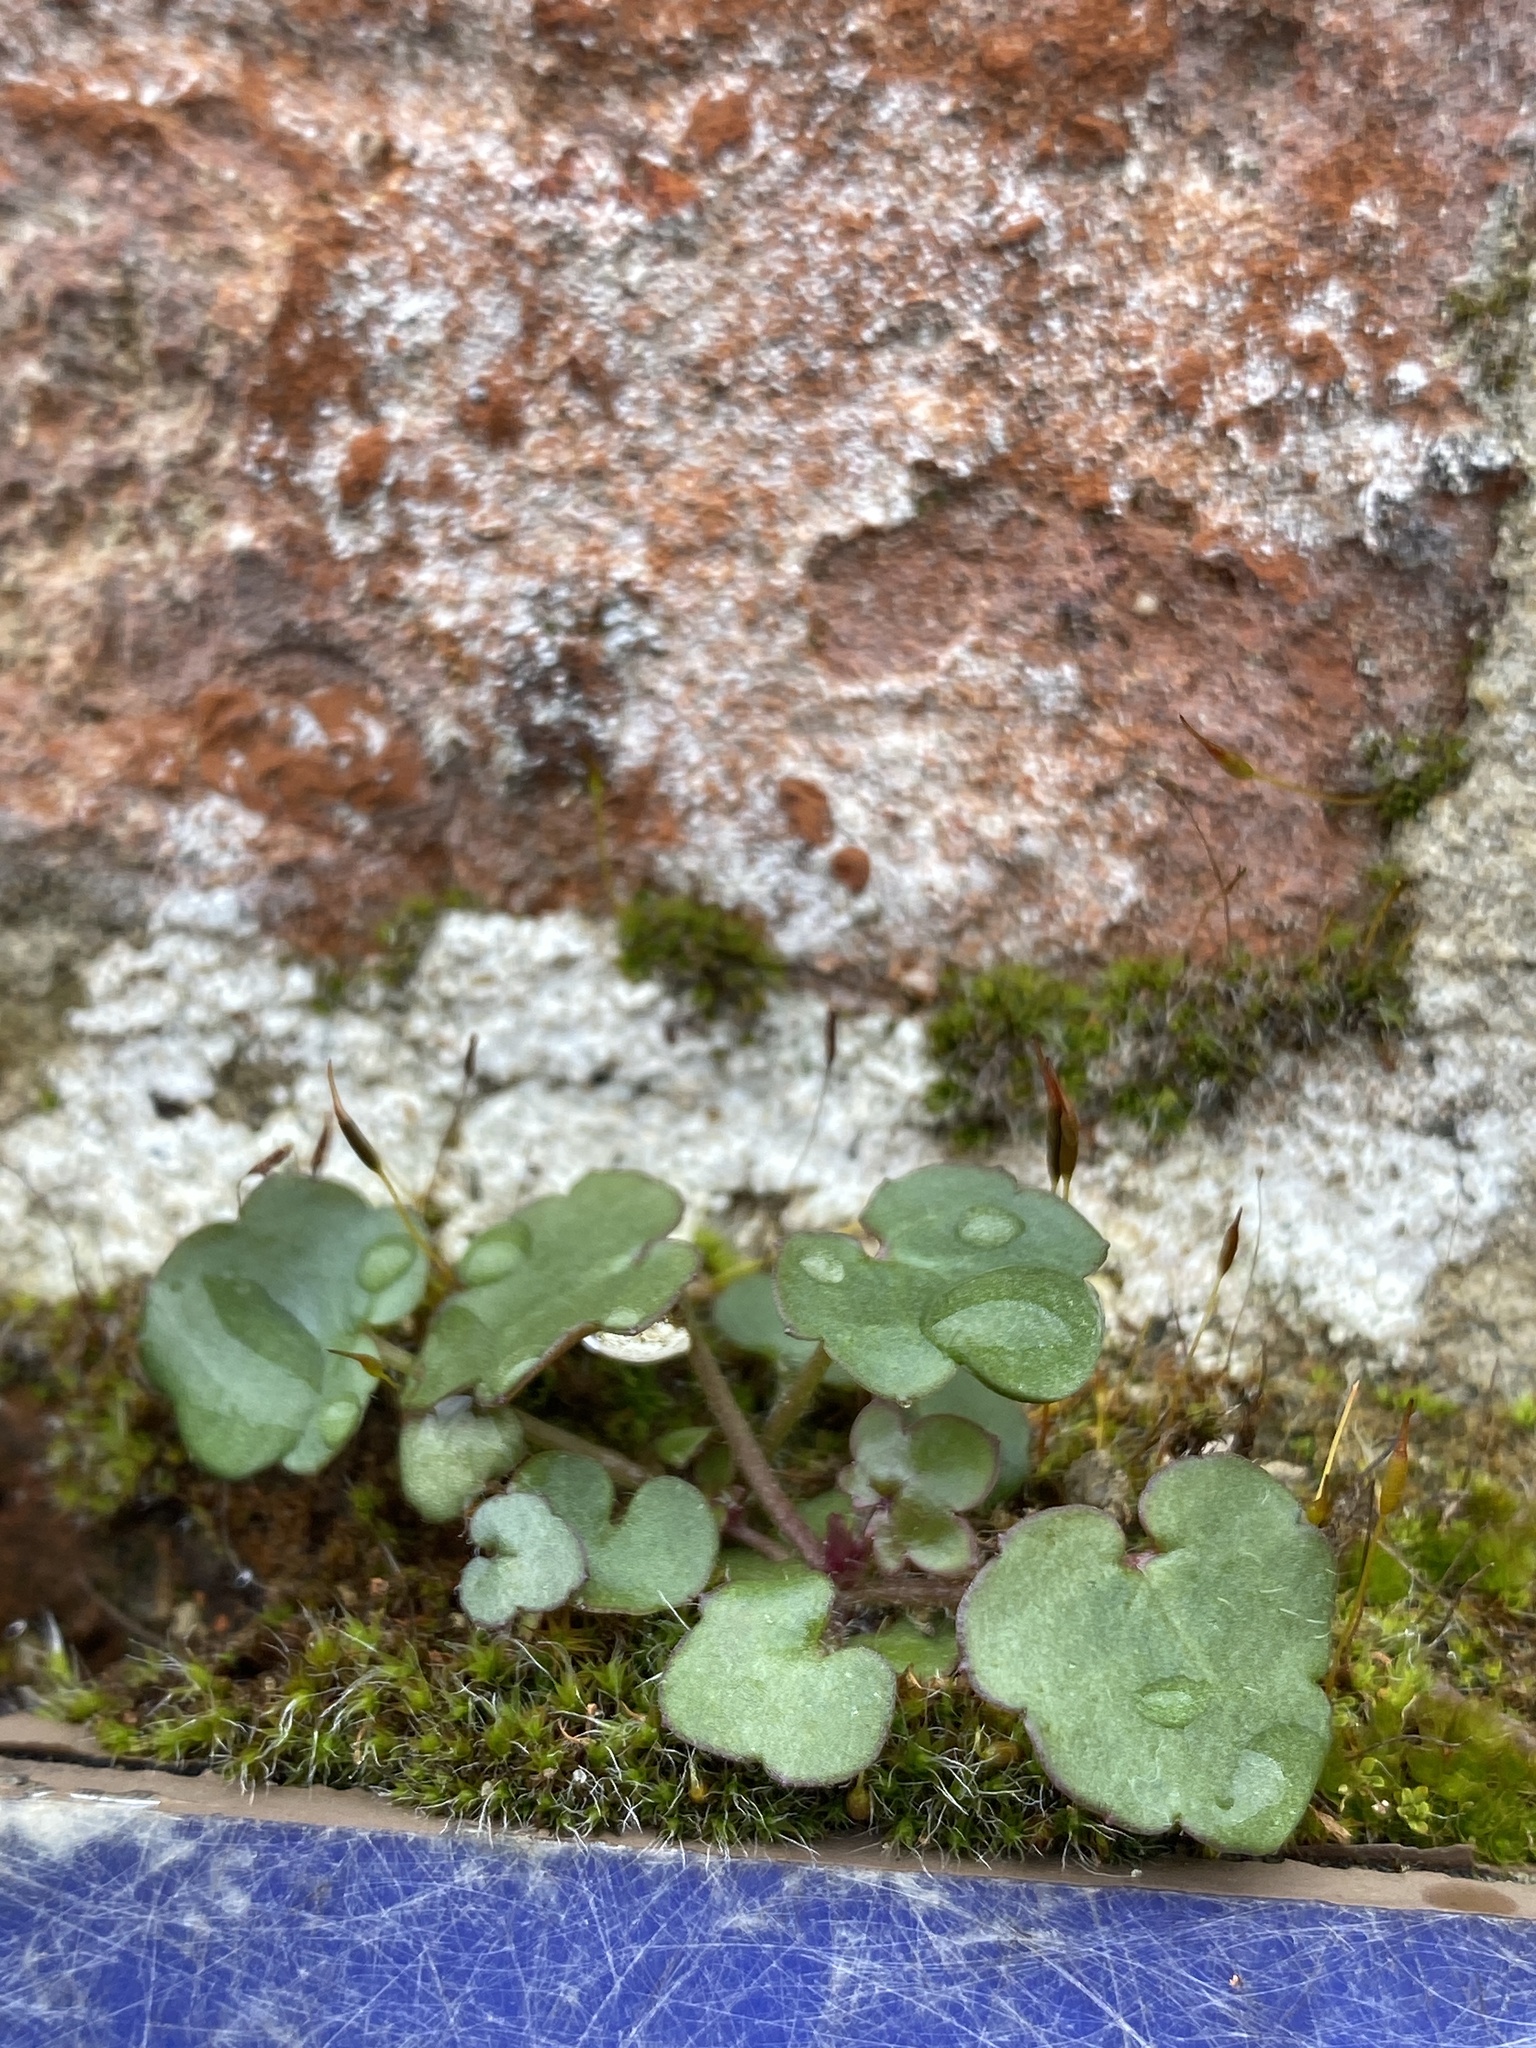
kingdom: Plantae
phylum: Tracheophyta
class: Magnoliopsida
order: Lamiales
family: Plantaginaceae
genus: Cymbalaria
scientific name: Cymbalaria muralis
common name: Ivy-leaved toadflax
